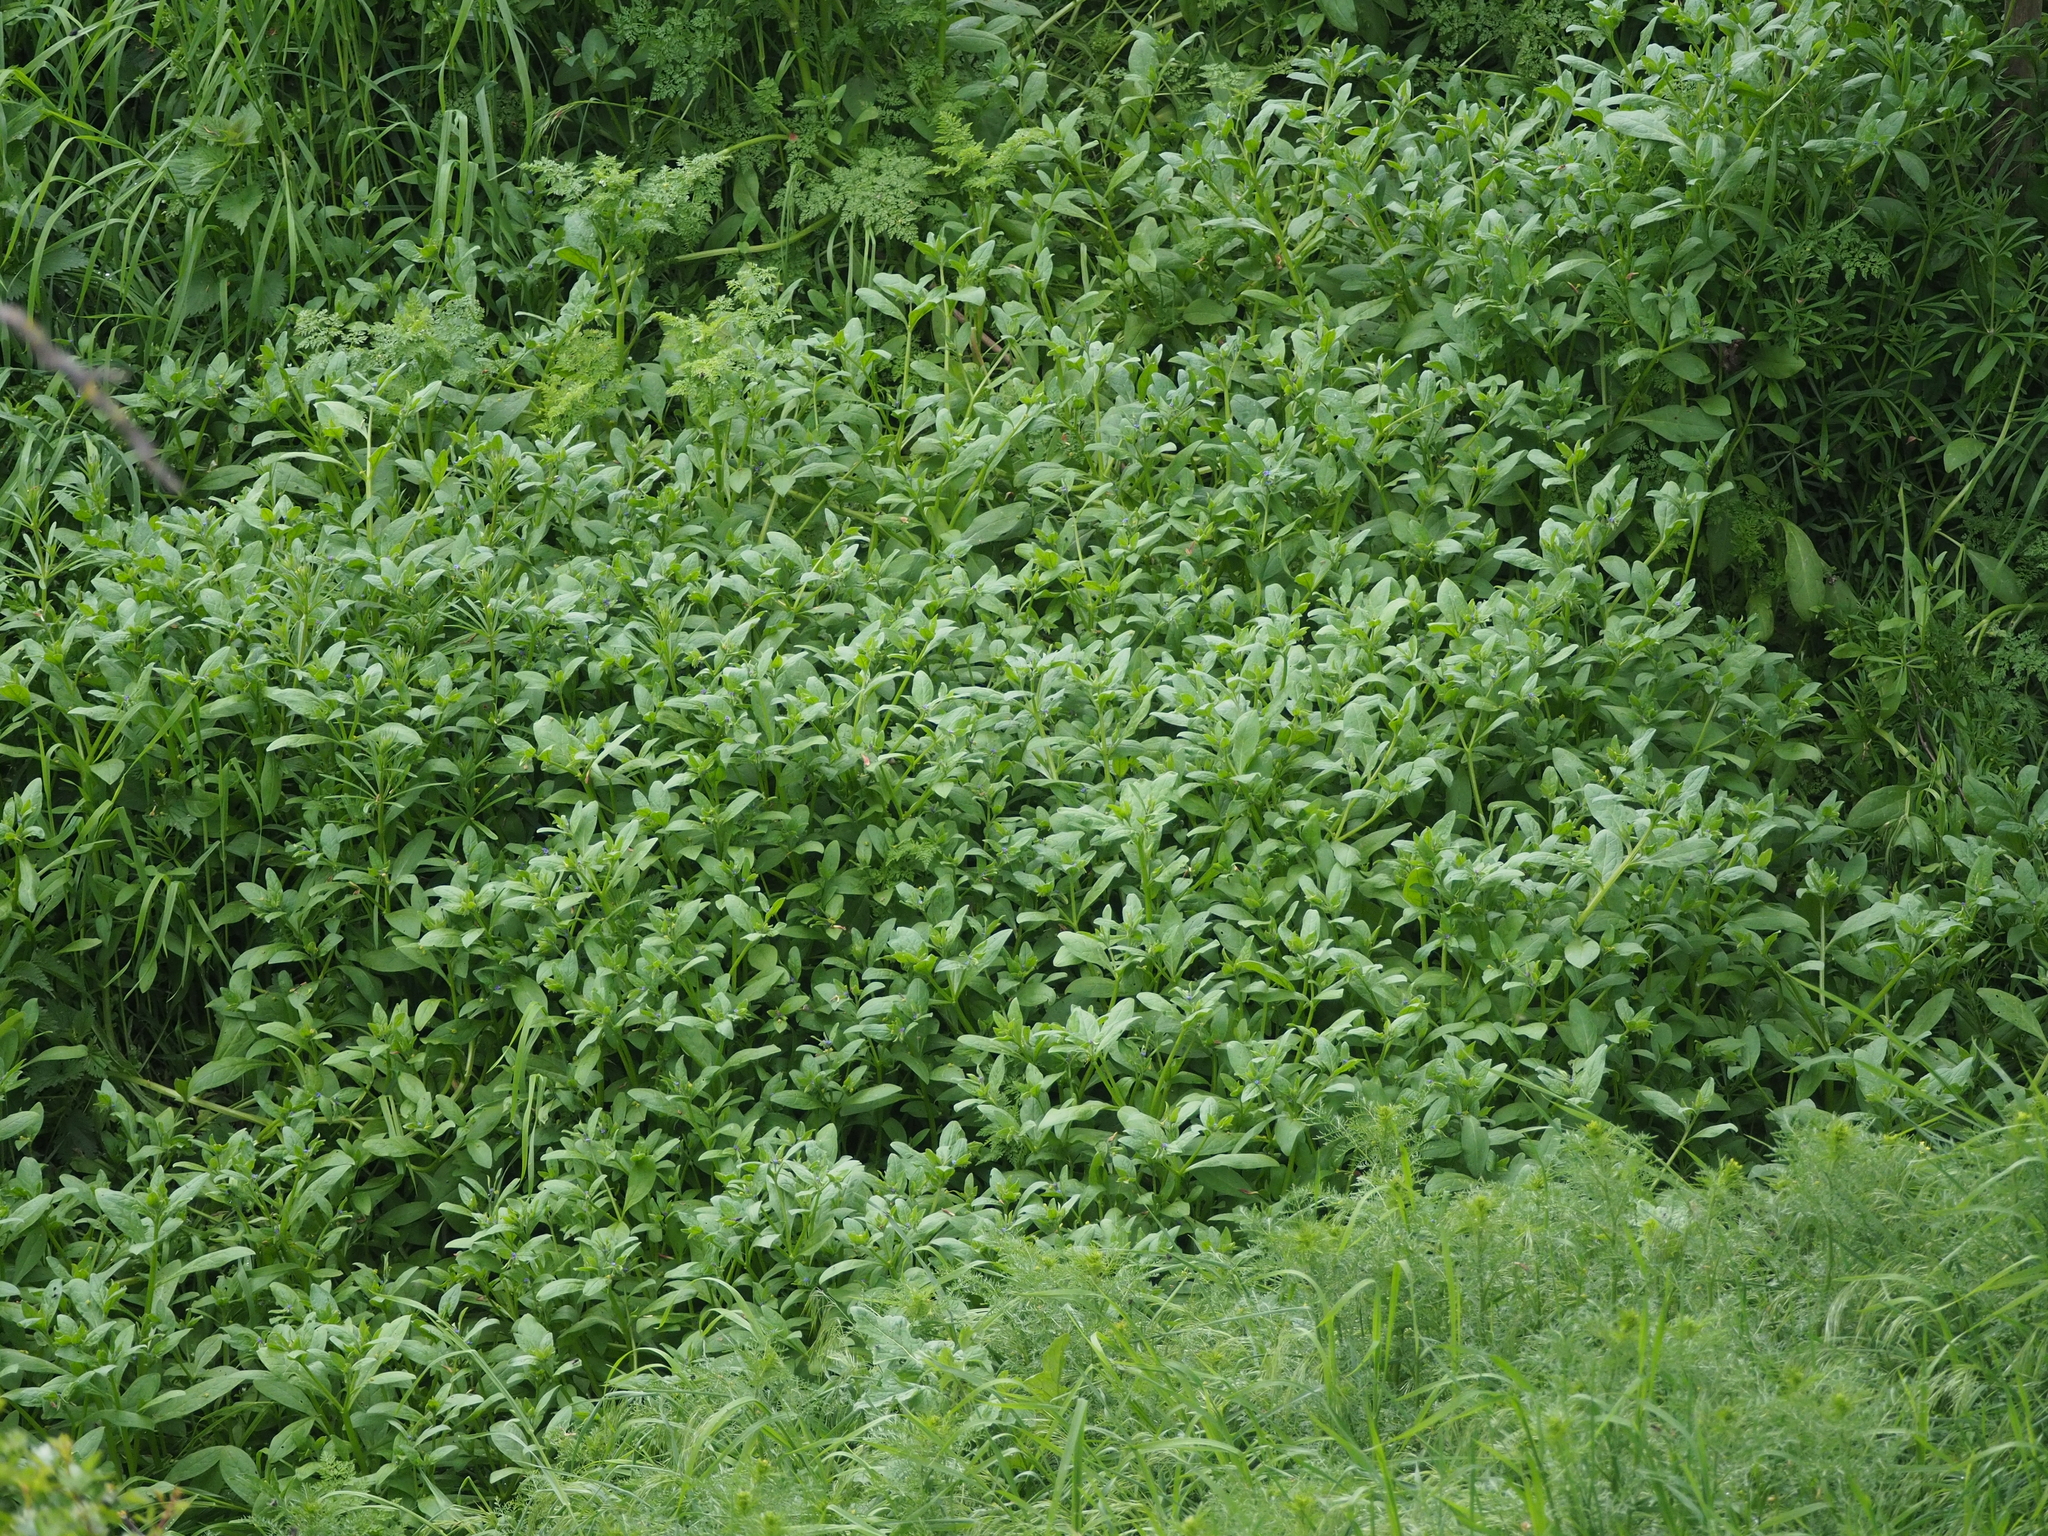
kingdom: Plantae
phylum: Tracheophyta
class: Magnoliopsida
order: Boraginales
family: Boraginaceae
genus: Asperugo
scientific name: Asperugo procumbens
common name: Madwort
